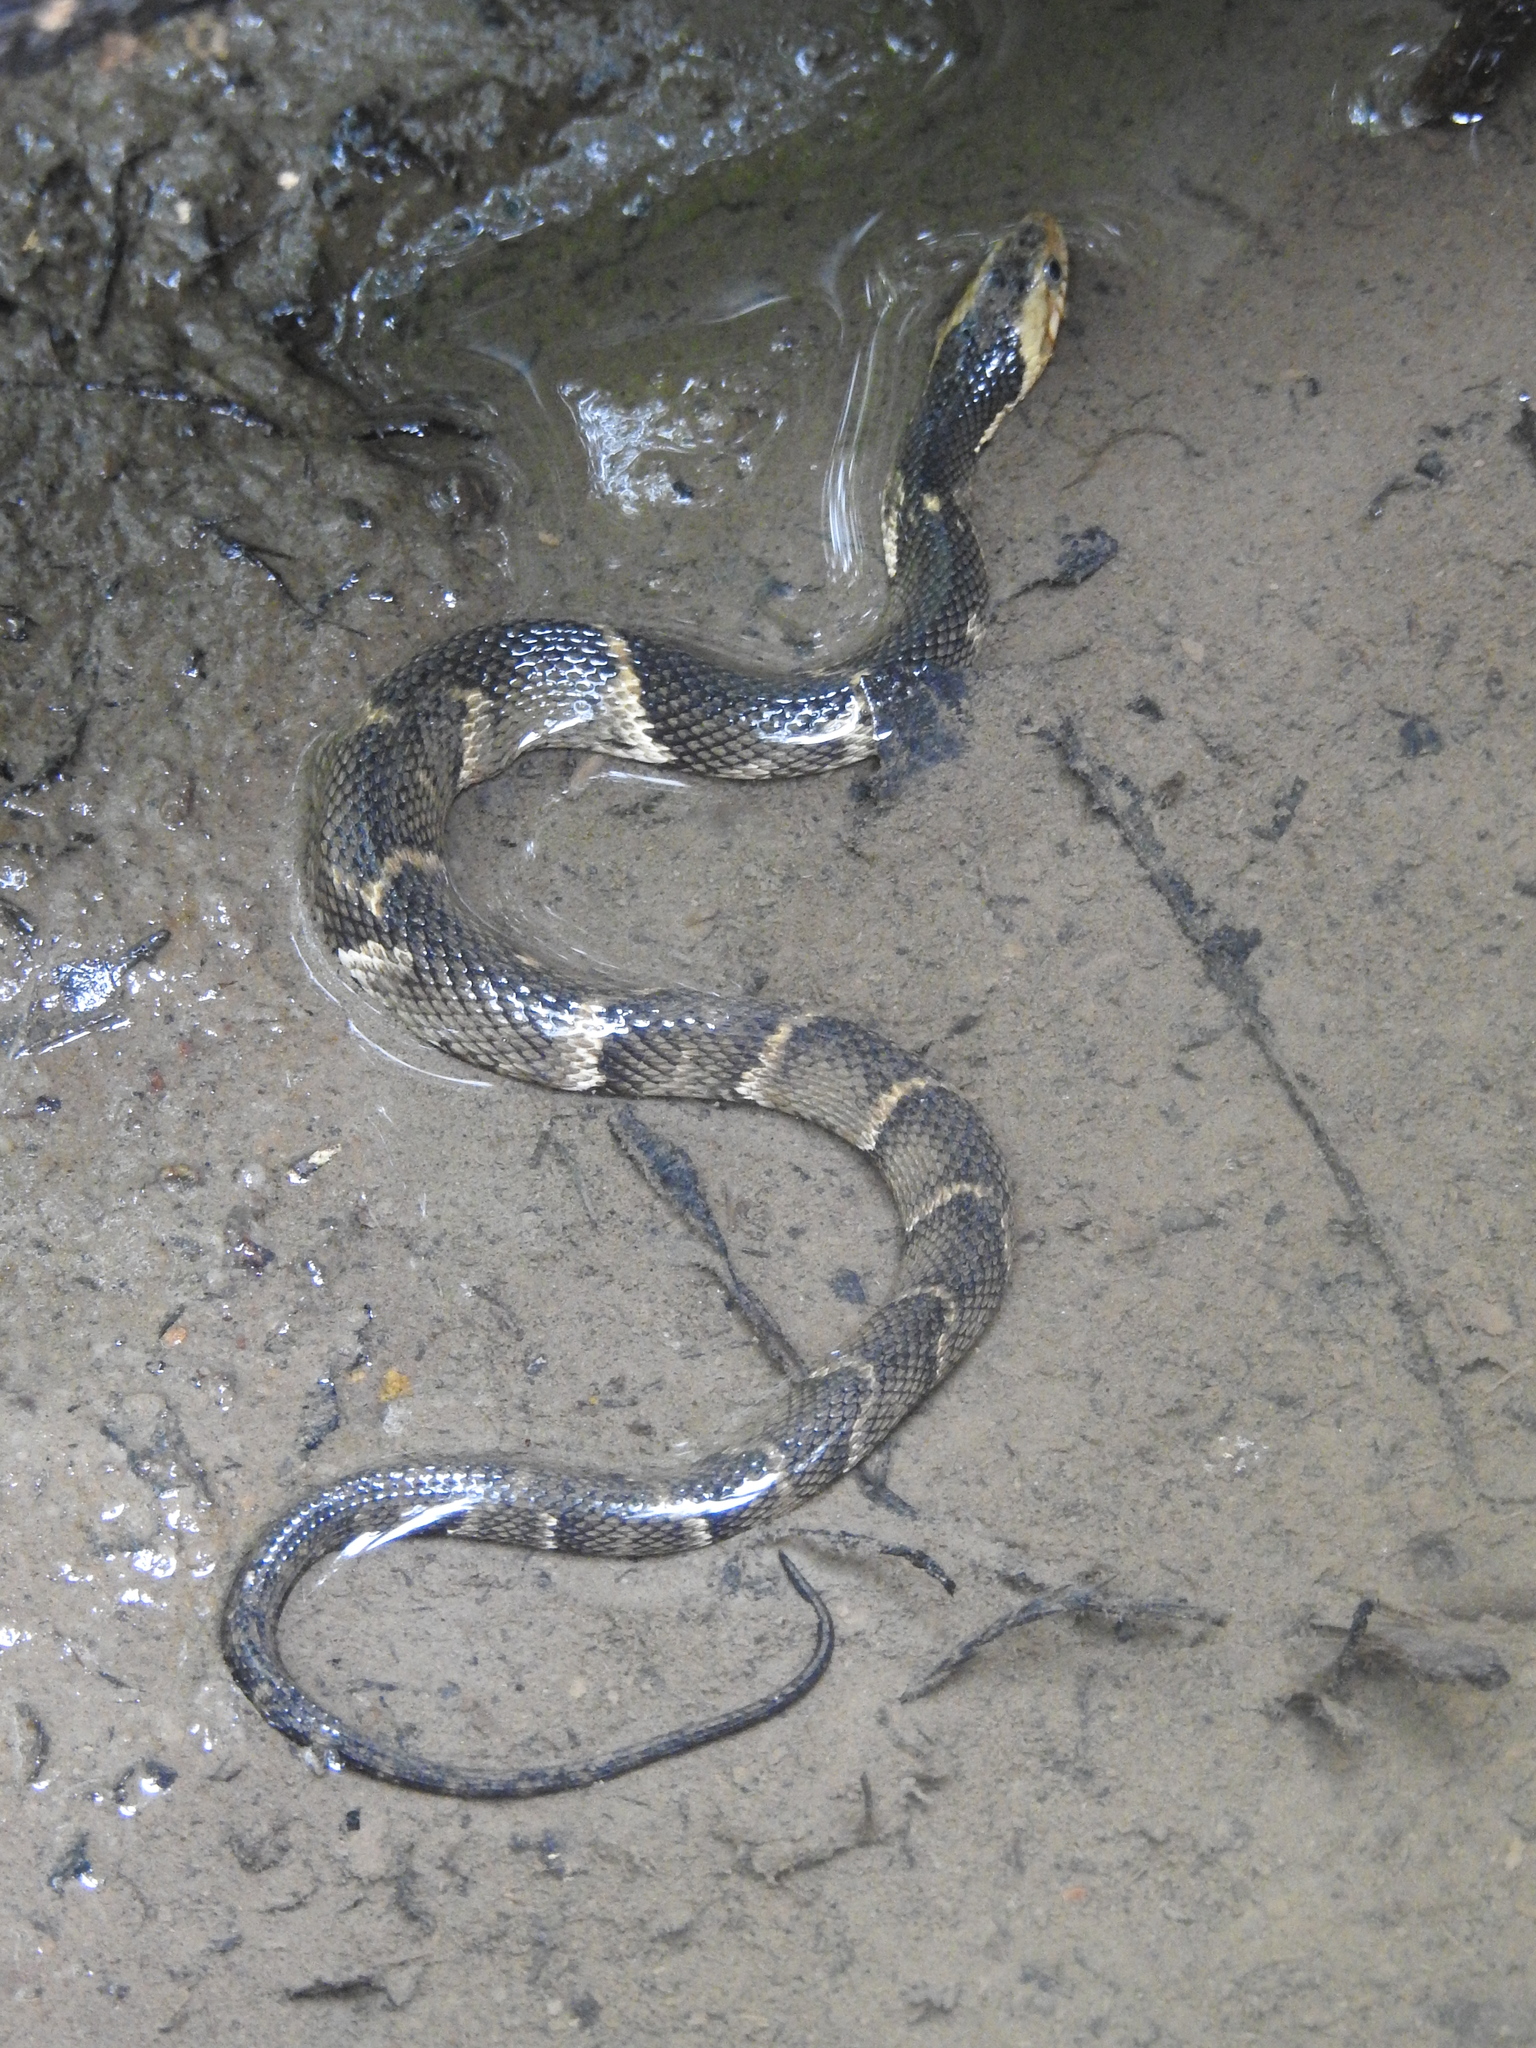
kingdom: Animalia
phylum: Chordata
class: Squamata
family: Colubridae
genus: Nerodia
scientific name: Nerodia fasciata
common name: Southern water snake
